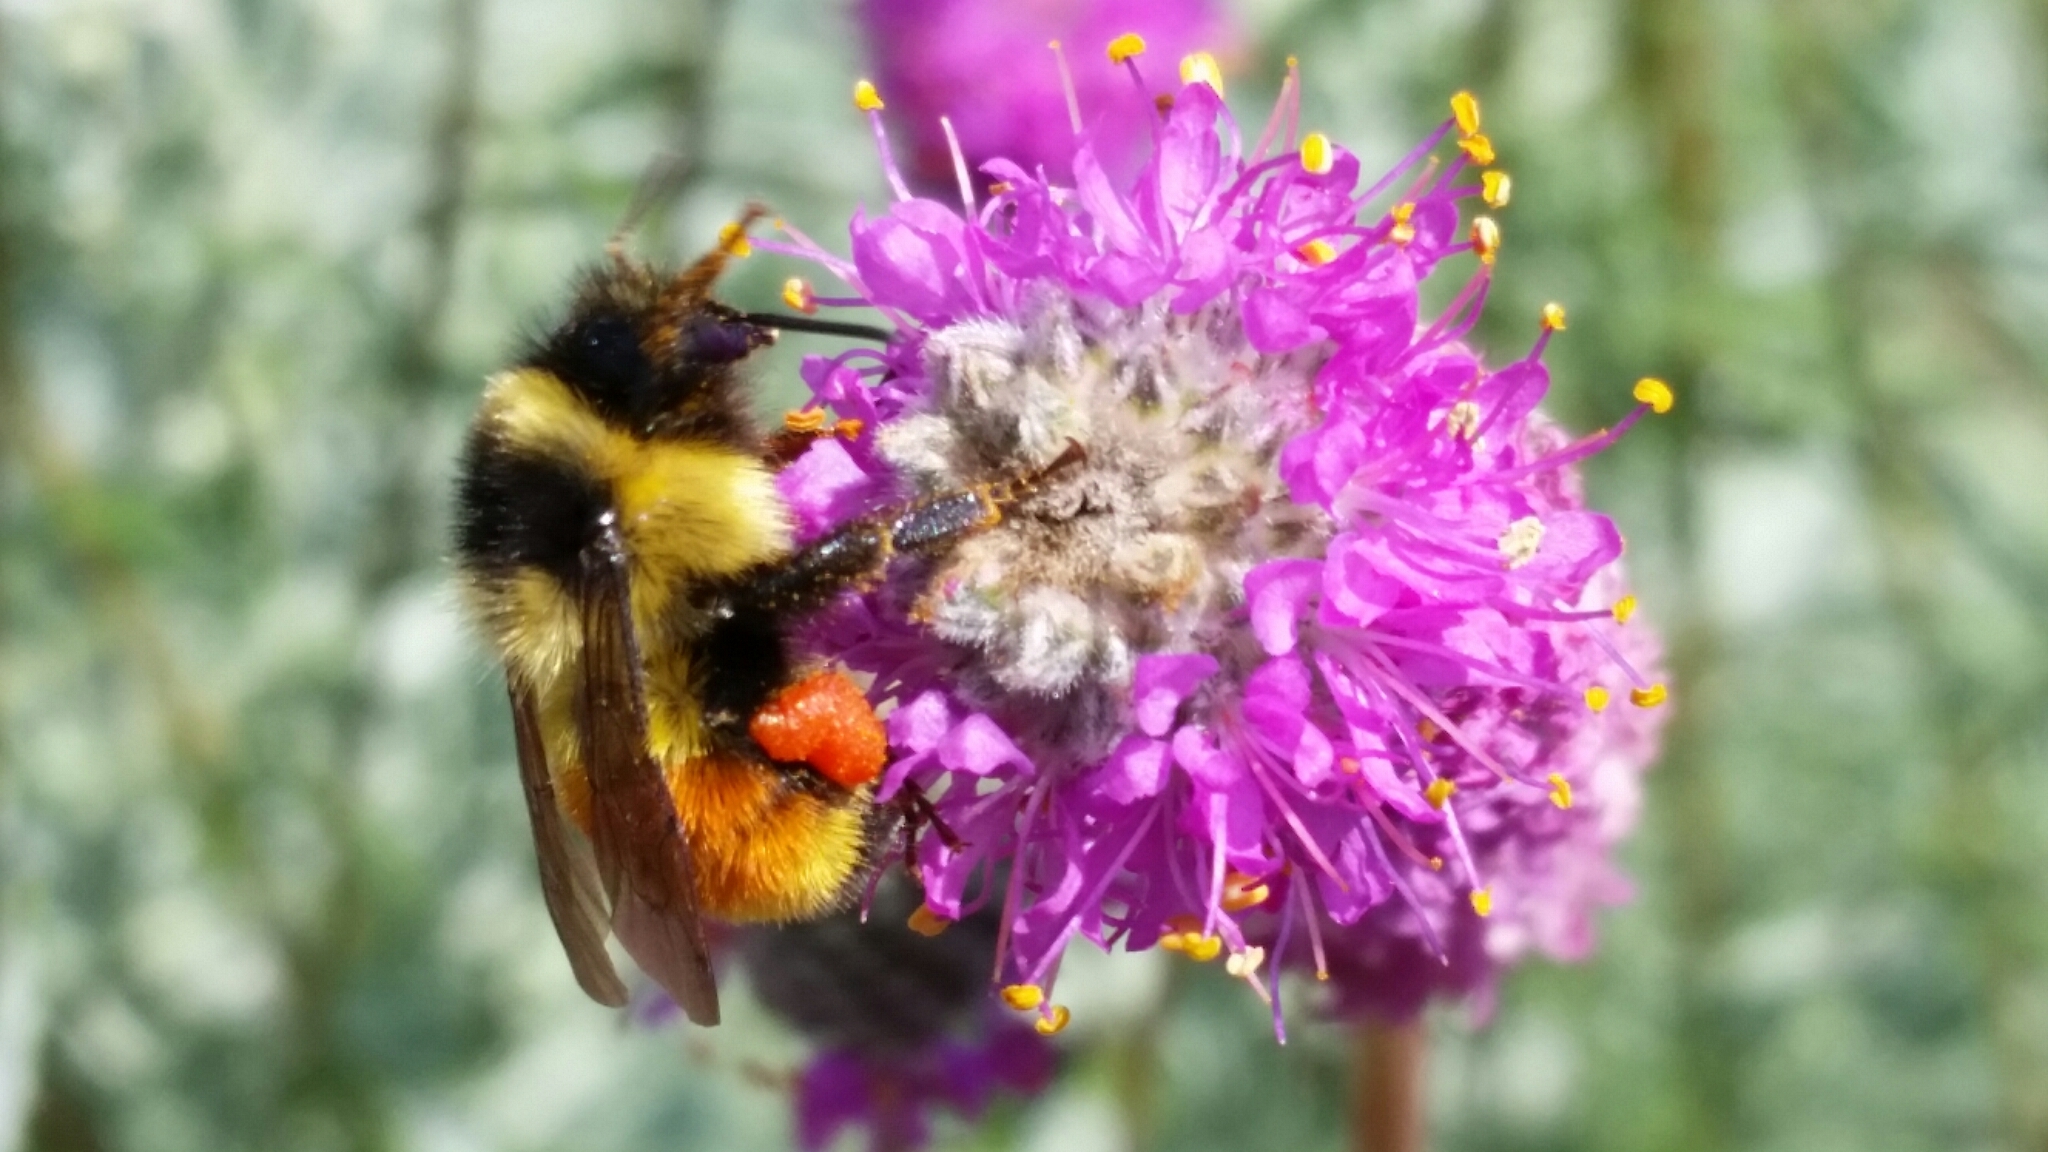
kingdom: Animalia
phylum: Arthropoda
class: Insecta
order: Hymenoptera
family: Apidae
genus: Bombus
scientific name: Bombus ternarius
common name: Tri-colored bumble bee
